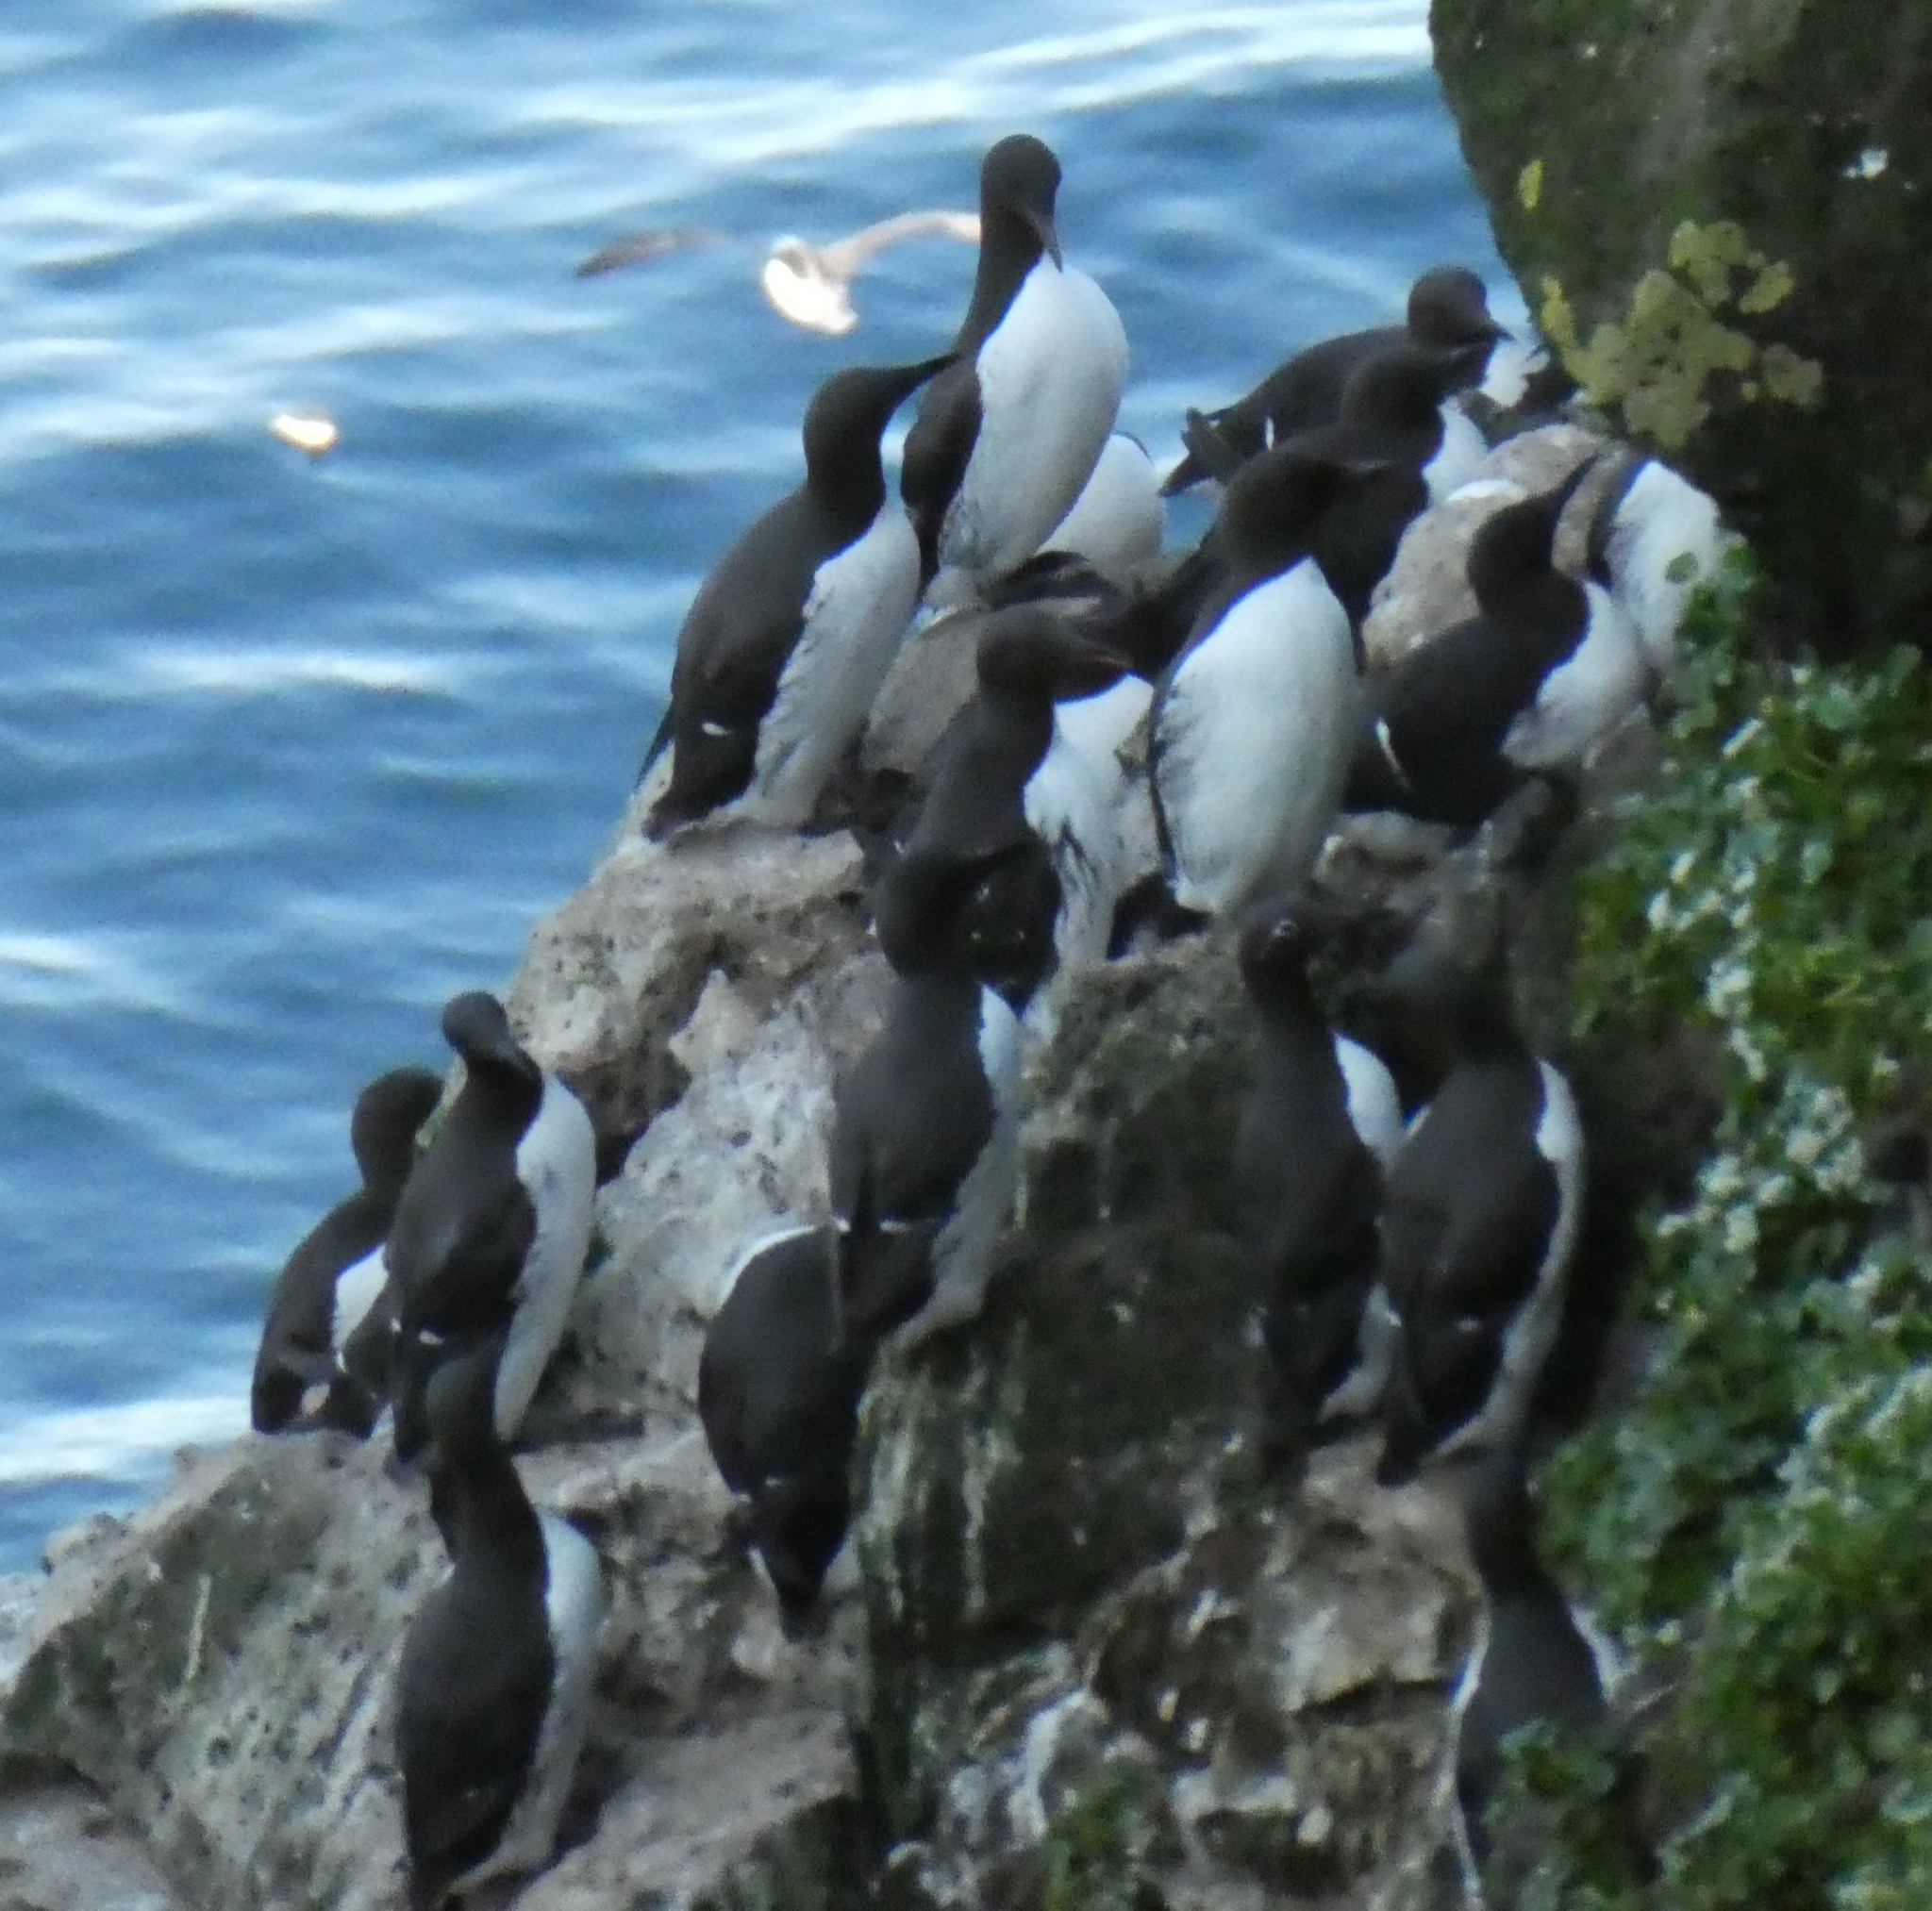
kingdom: Animalia
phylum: Chordata
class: Aves
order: Charadriiformes
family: Alcidae
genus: Uria
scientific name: Uria aalge
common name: Common murre
